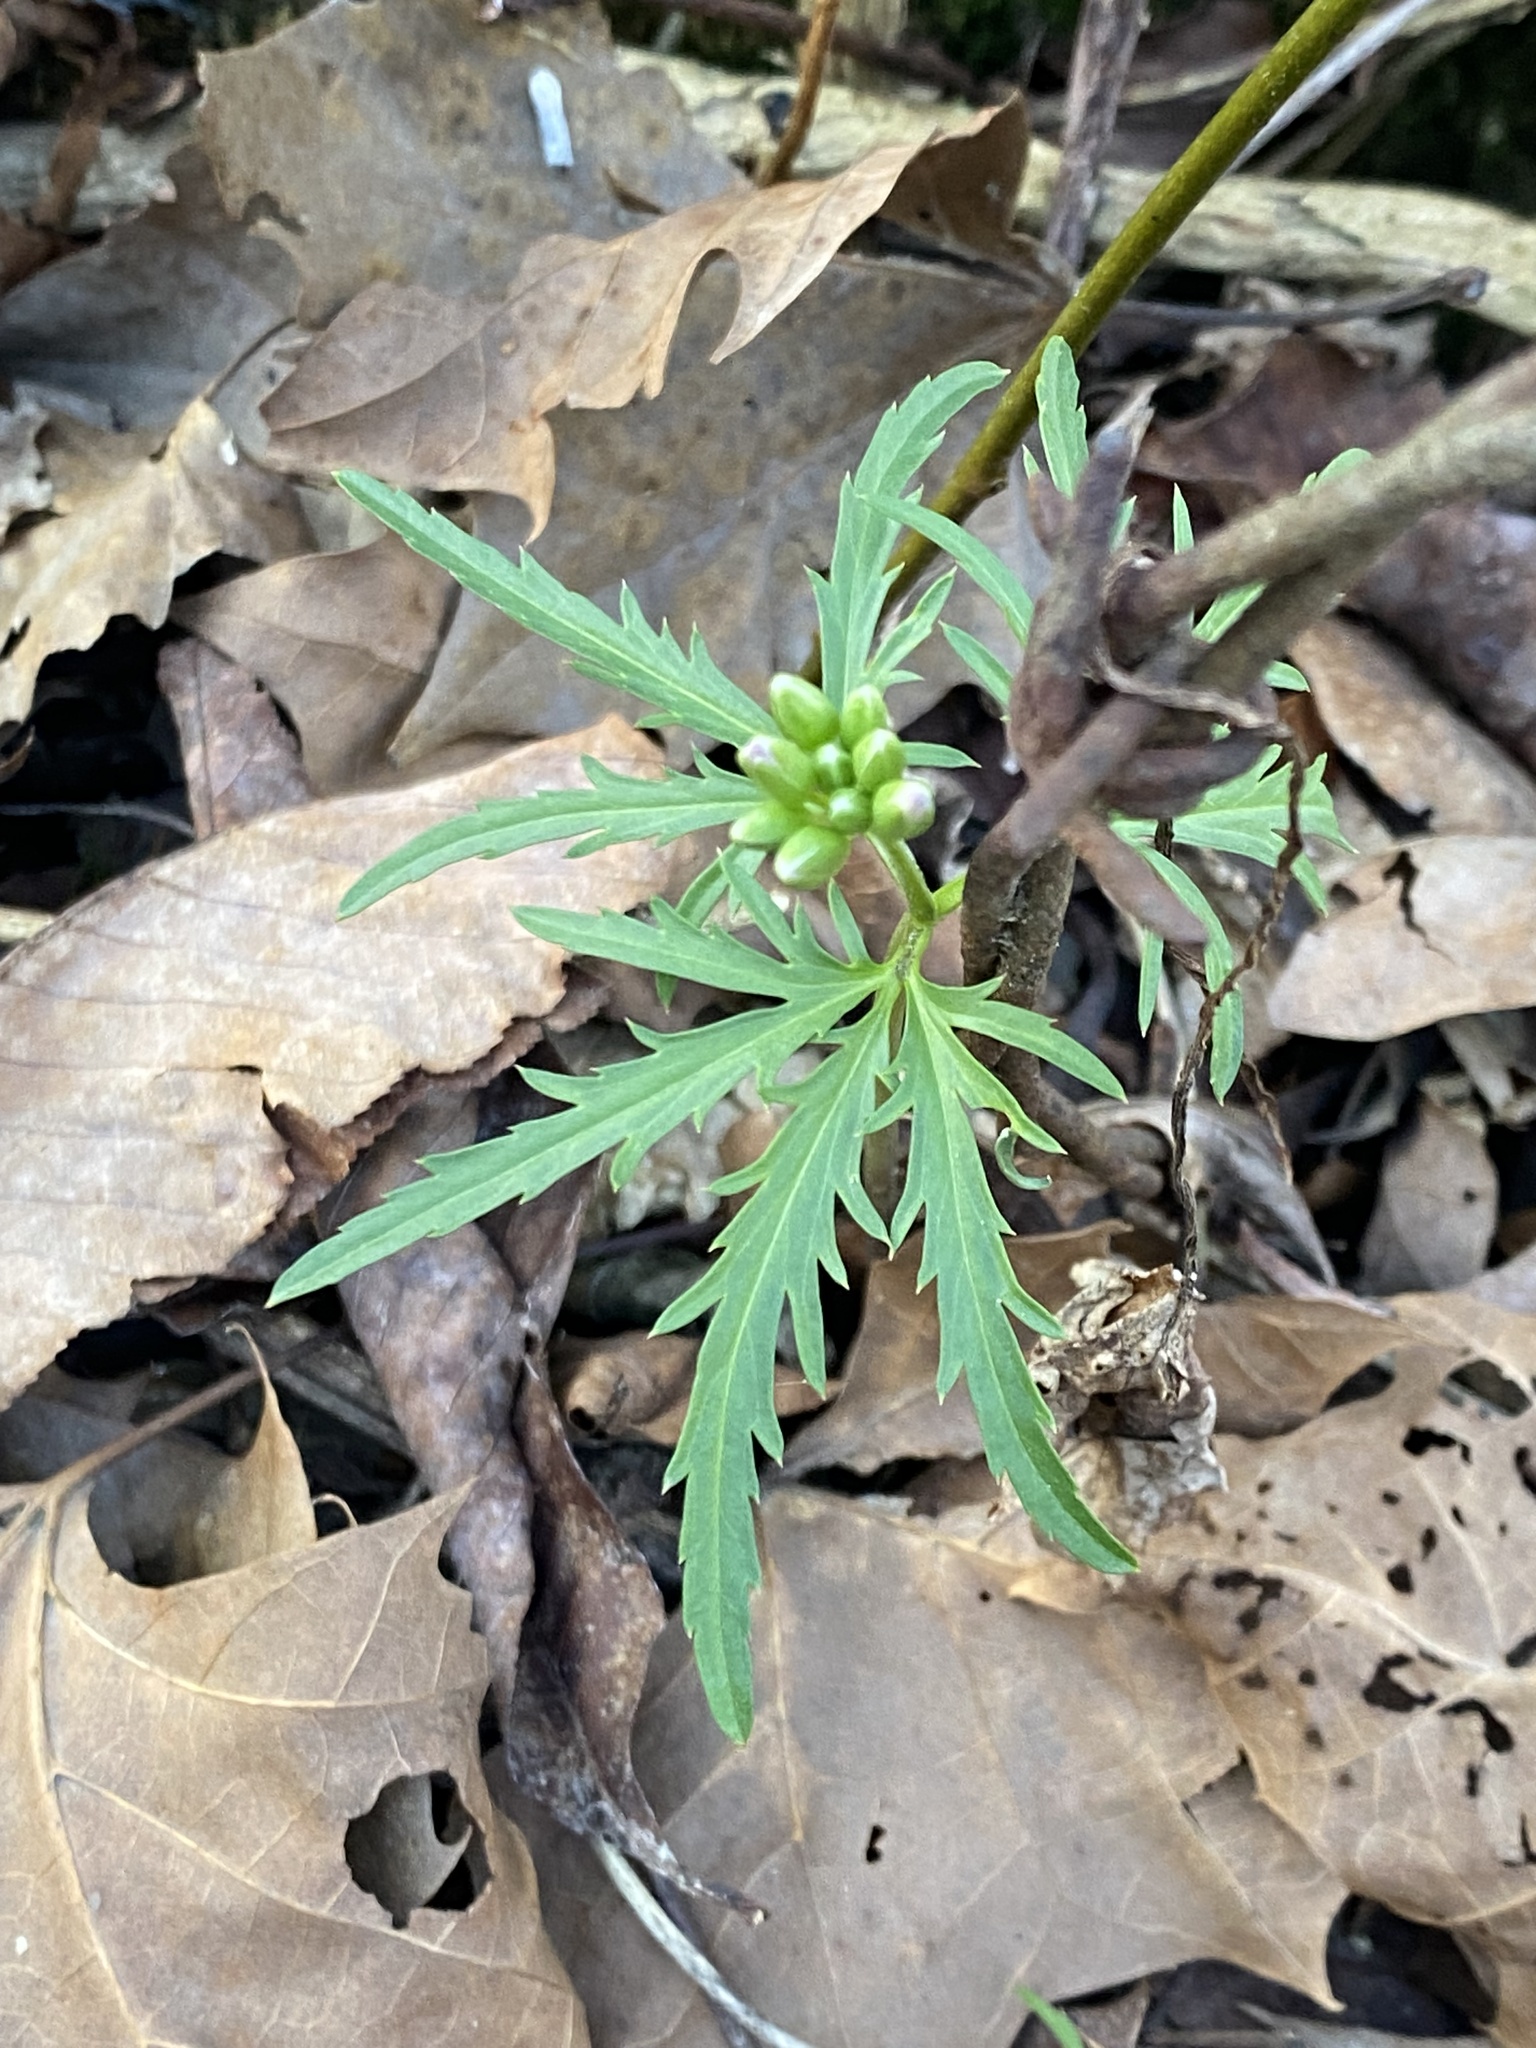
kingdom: Plantae
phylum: Tracheophyta
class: Magnoliopsida
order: Brassicales
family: Brassicaceae
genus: Cardamine
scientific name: Cardamine concatenata
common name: Cut-leaf toothcup
